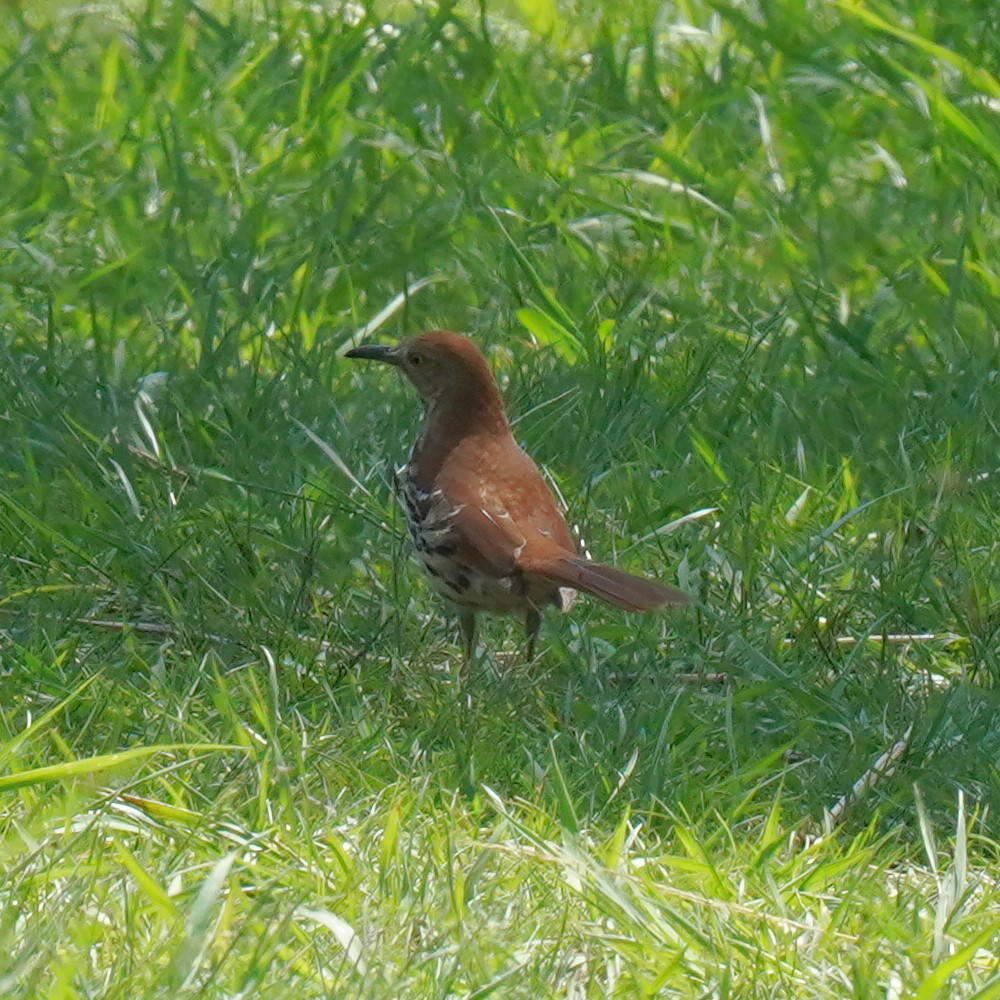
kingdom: Animalia
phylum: Chordata
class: Aves
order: Passeriformes
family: Mimidae
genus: Toxostoma
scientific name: Toxostoma rufum
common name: Brown thrasher
